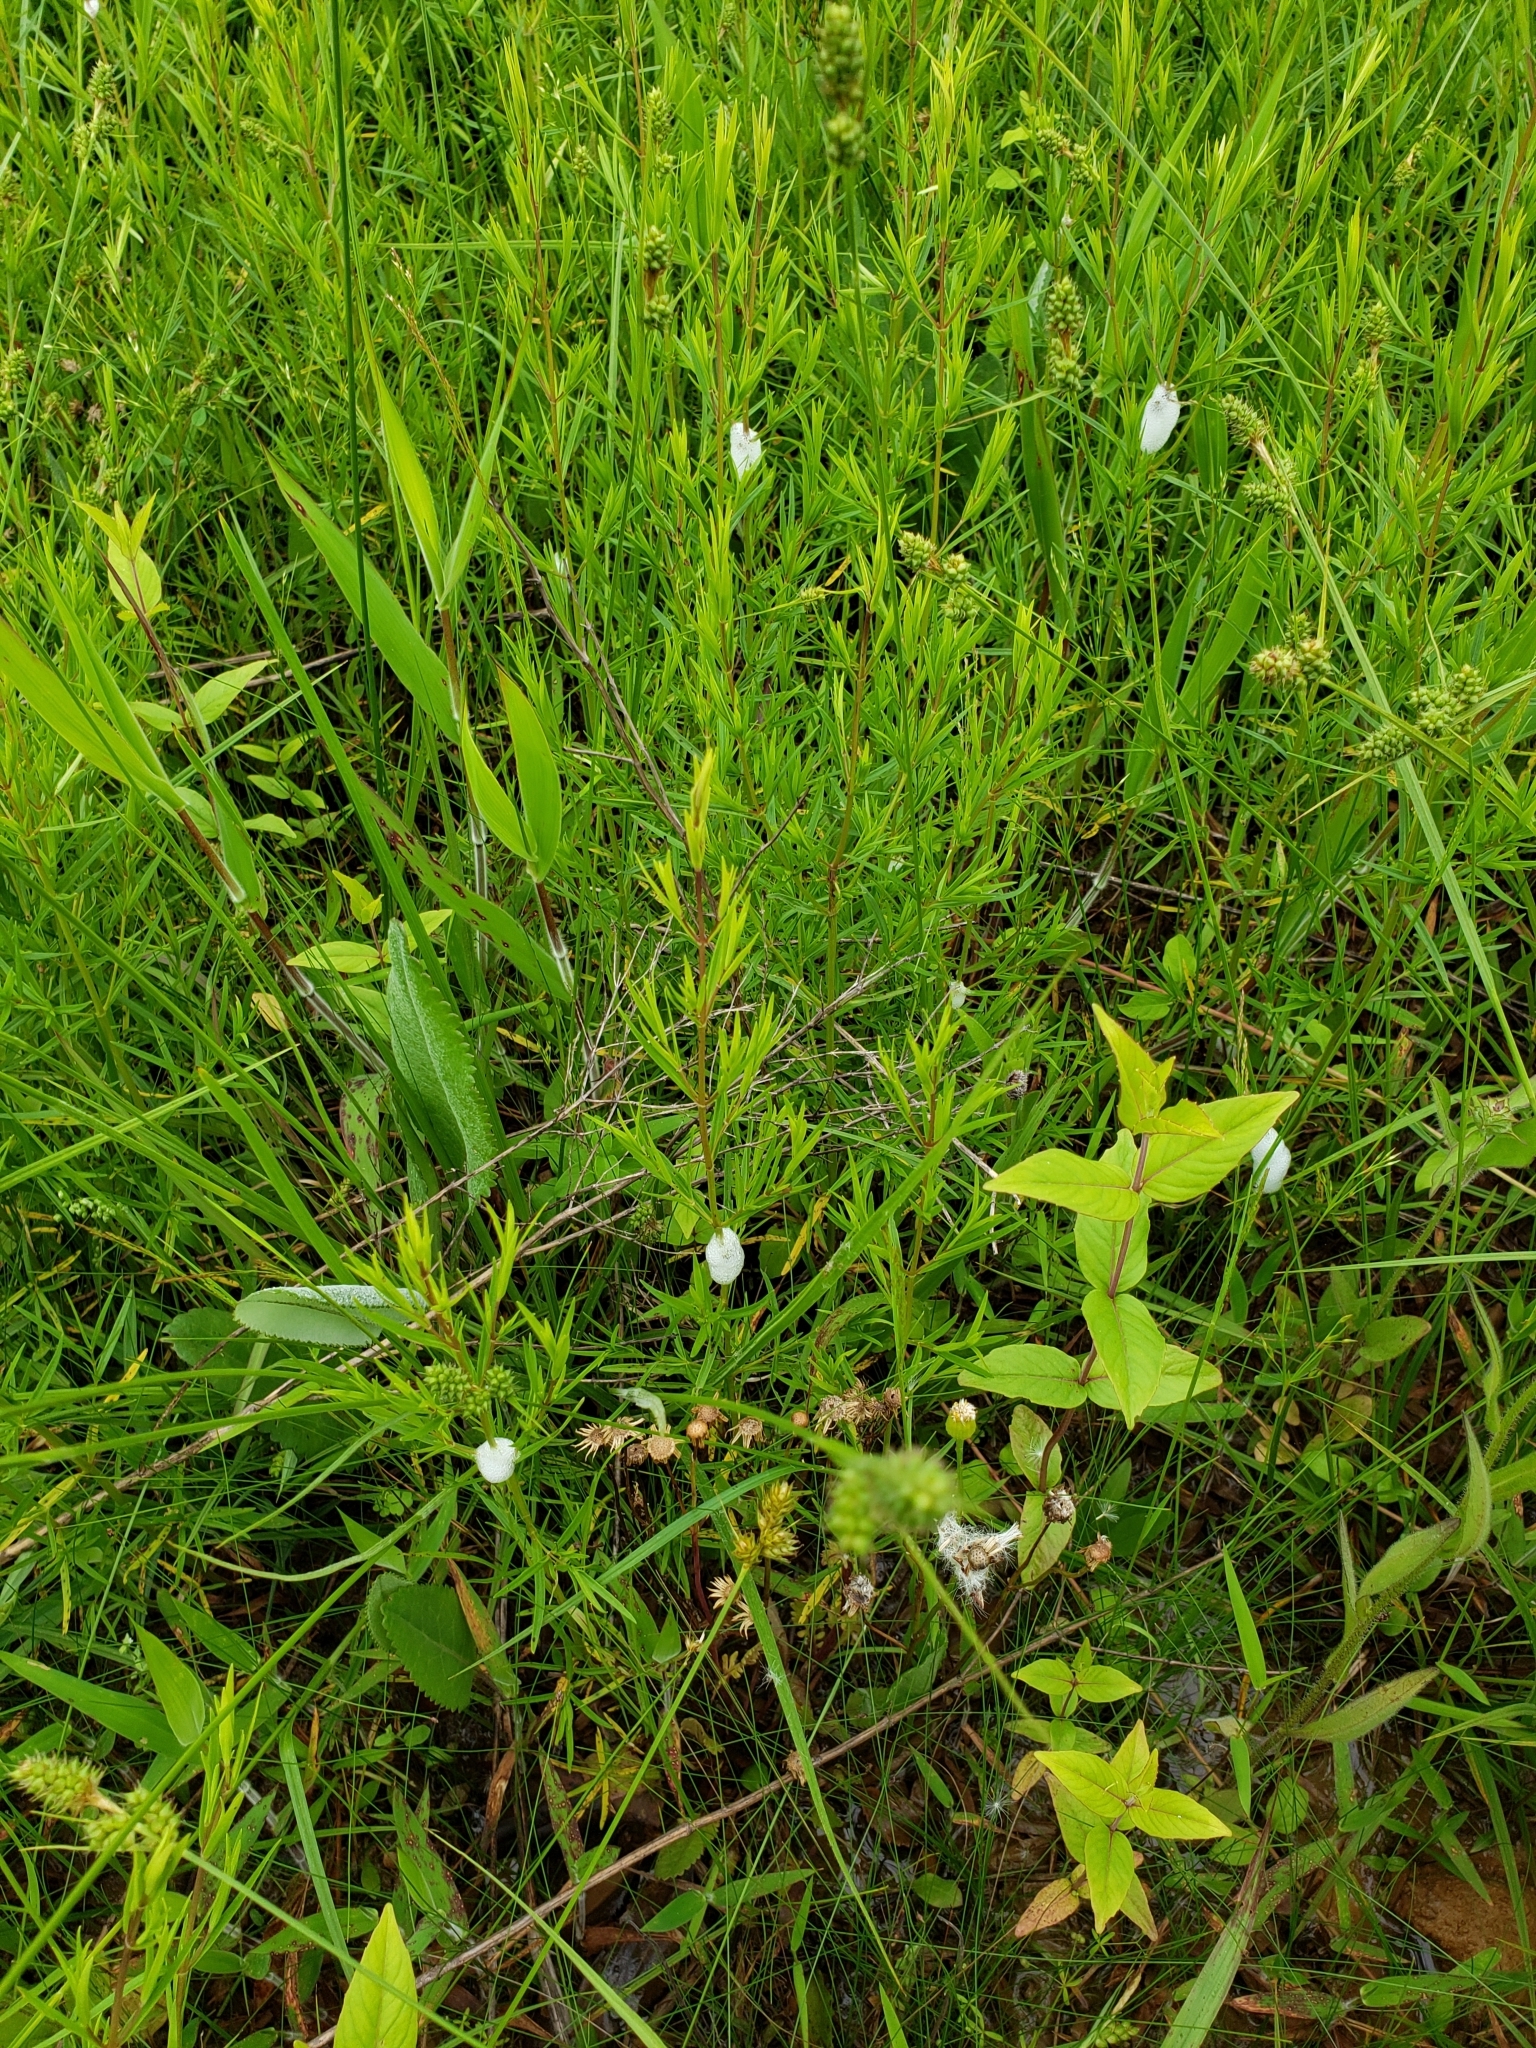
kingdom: Animalia
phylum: Arthropoda
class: Insecta
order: Hemiptera
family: Aphrophoridae
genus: Philaenus
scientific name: Philaenus spumarius
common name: Meadow spittlebug
